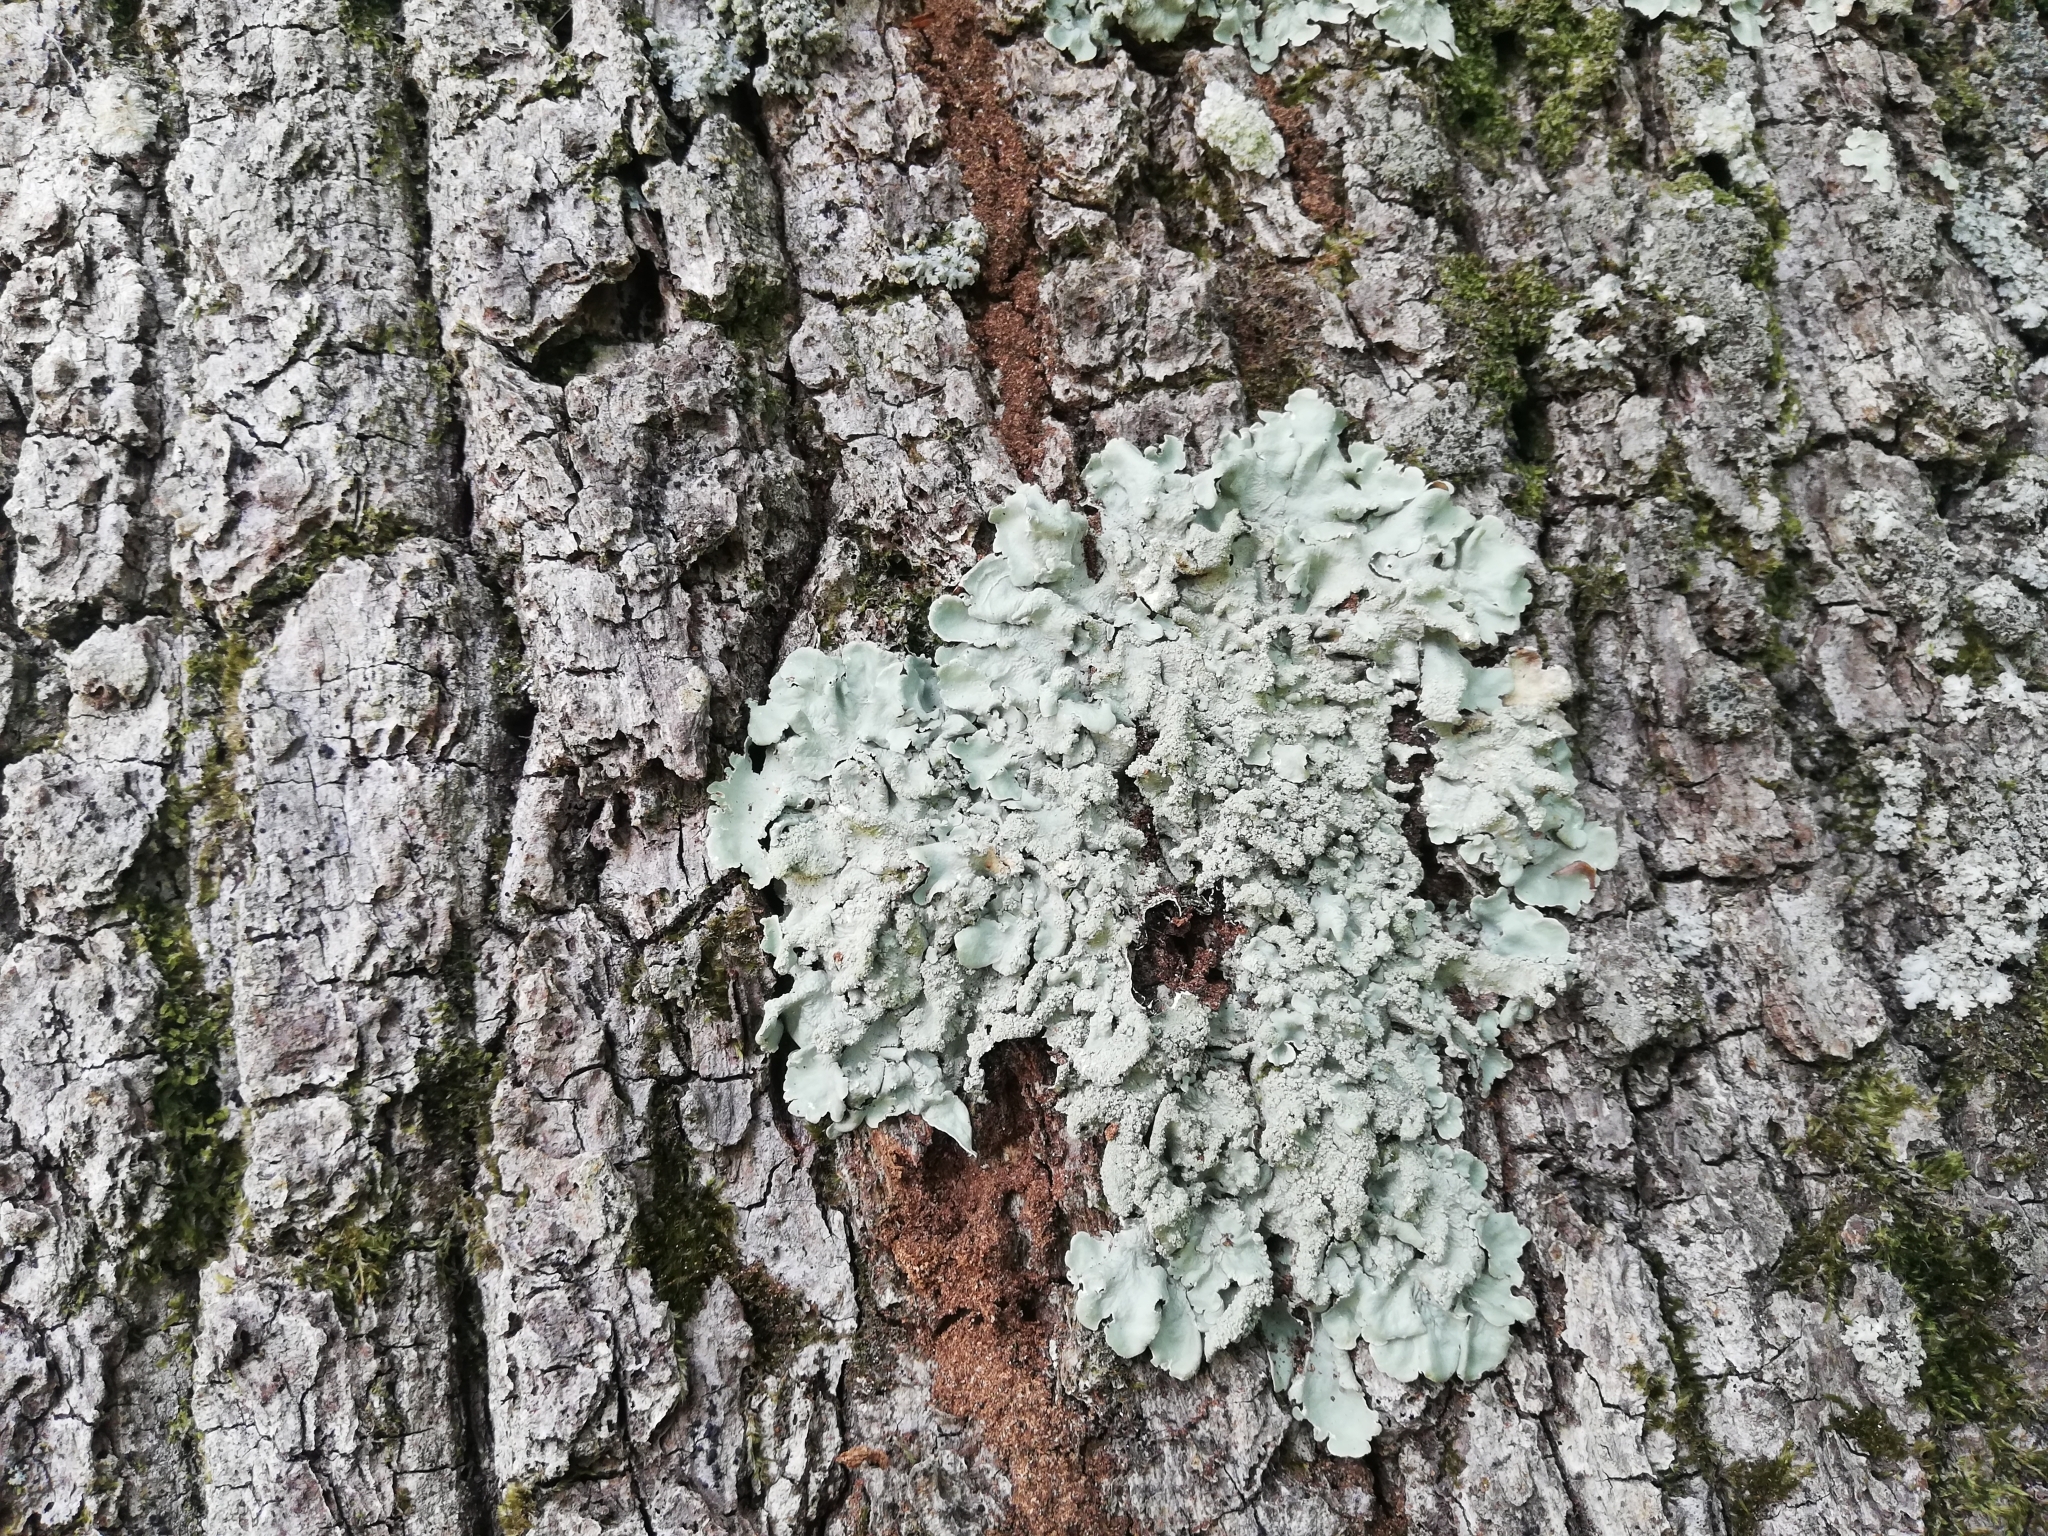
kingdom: Fungi
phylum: Ascomycota
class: Lecanoromycetes
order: Lecanorales
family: Parmeliaceae
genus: Flavoparmelia
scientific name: Flavoparmelia caperata
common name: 40-mile per hour lichen
